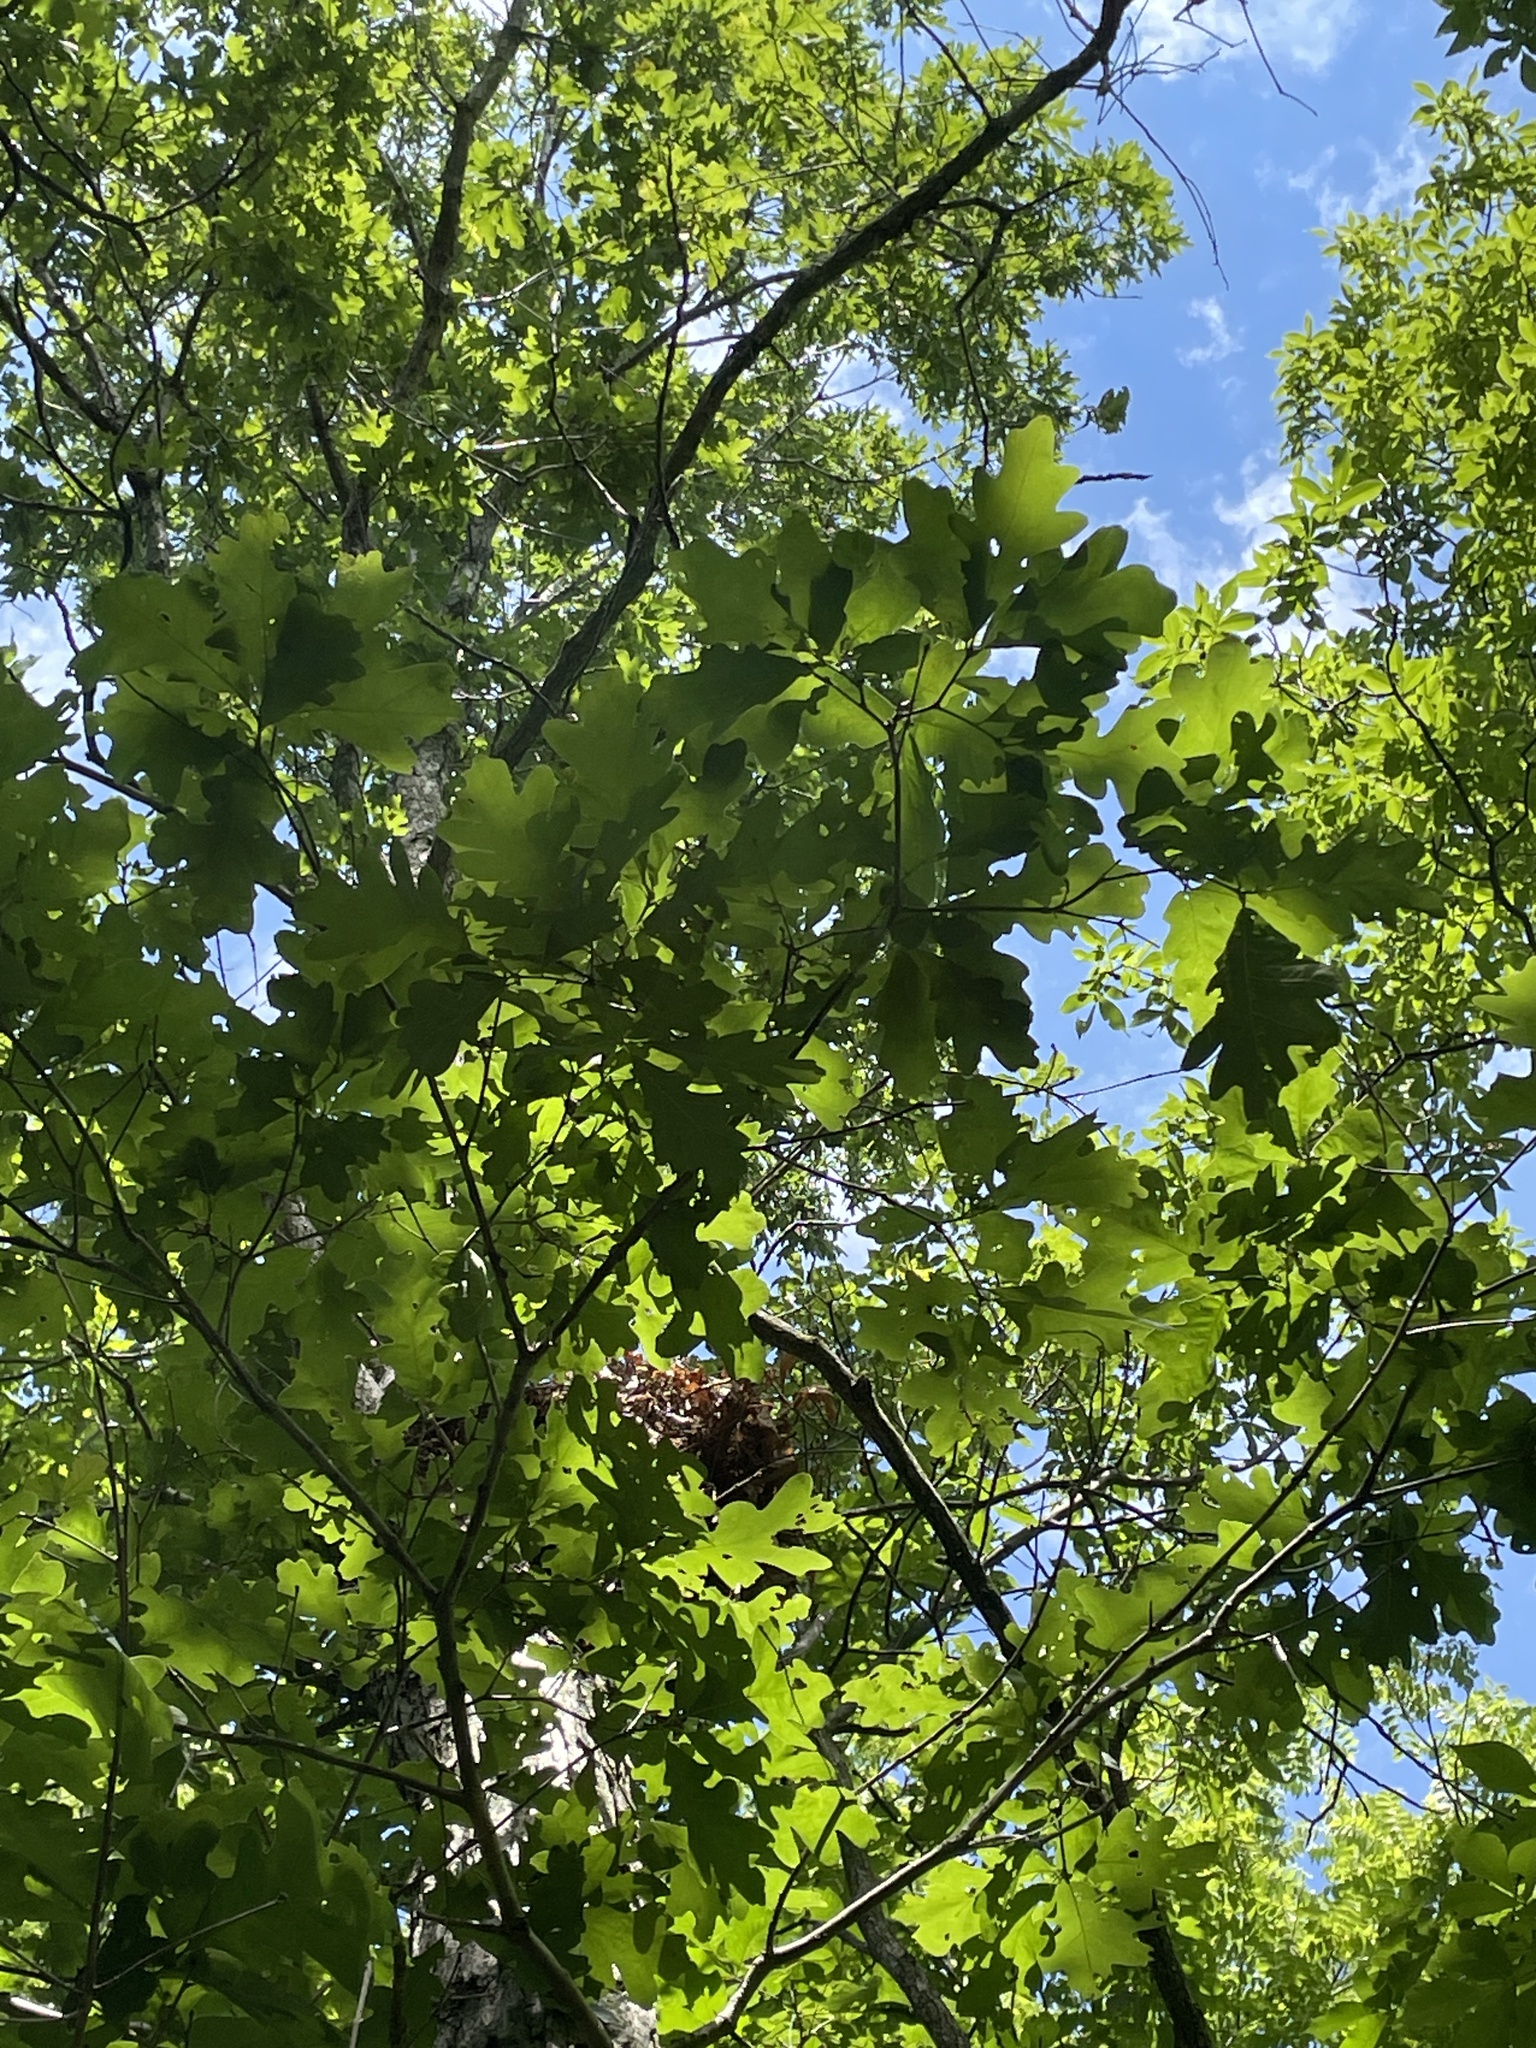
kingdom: Plantae
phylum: Tracheophyta
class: Magnoliopsida
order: Fagales
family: Fagaceae
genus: Quercus
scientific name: Quercus alba
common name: White oak
